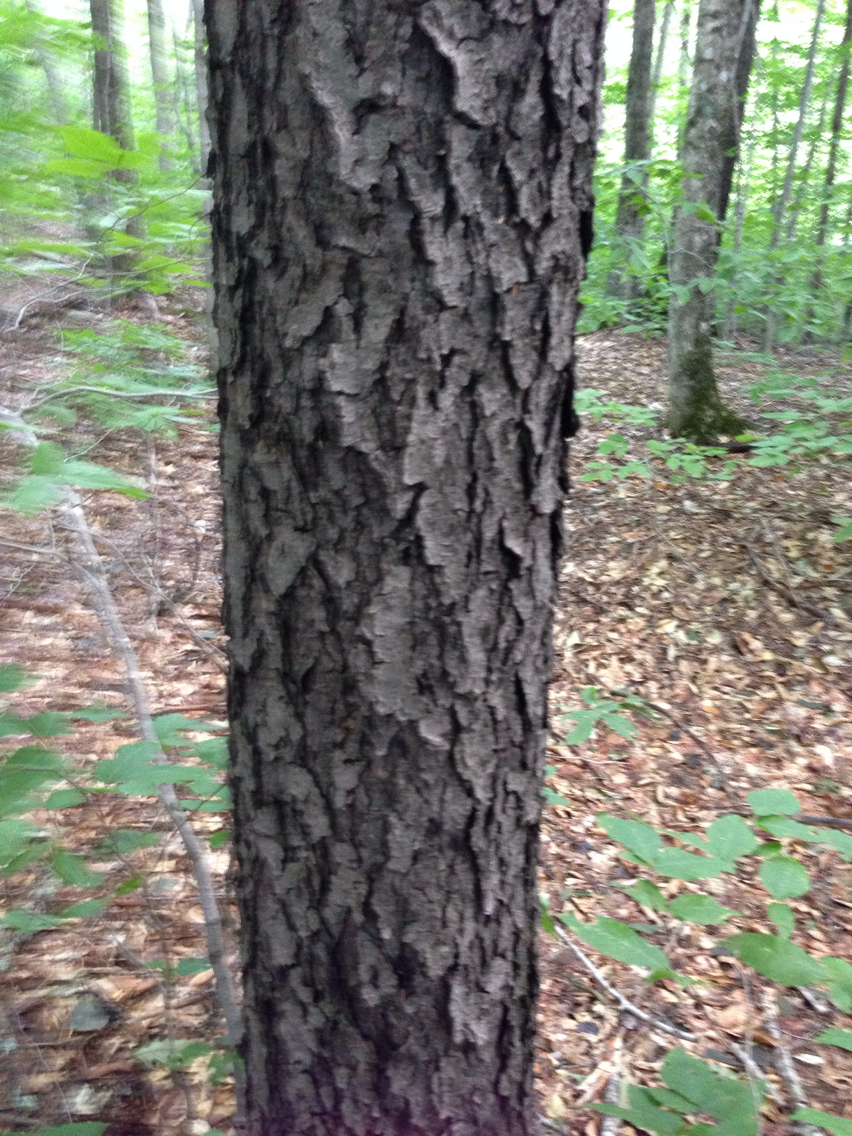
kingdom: Plantae
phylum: Tracheophyta
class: Magnoliopsida
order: Rosales
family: Rosaceae
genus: Prunus
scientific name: Prunus serotina
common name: Black cherry
